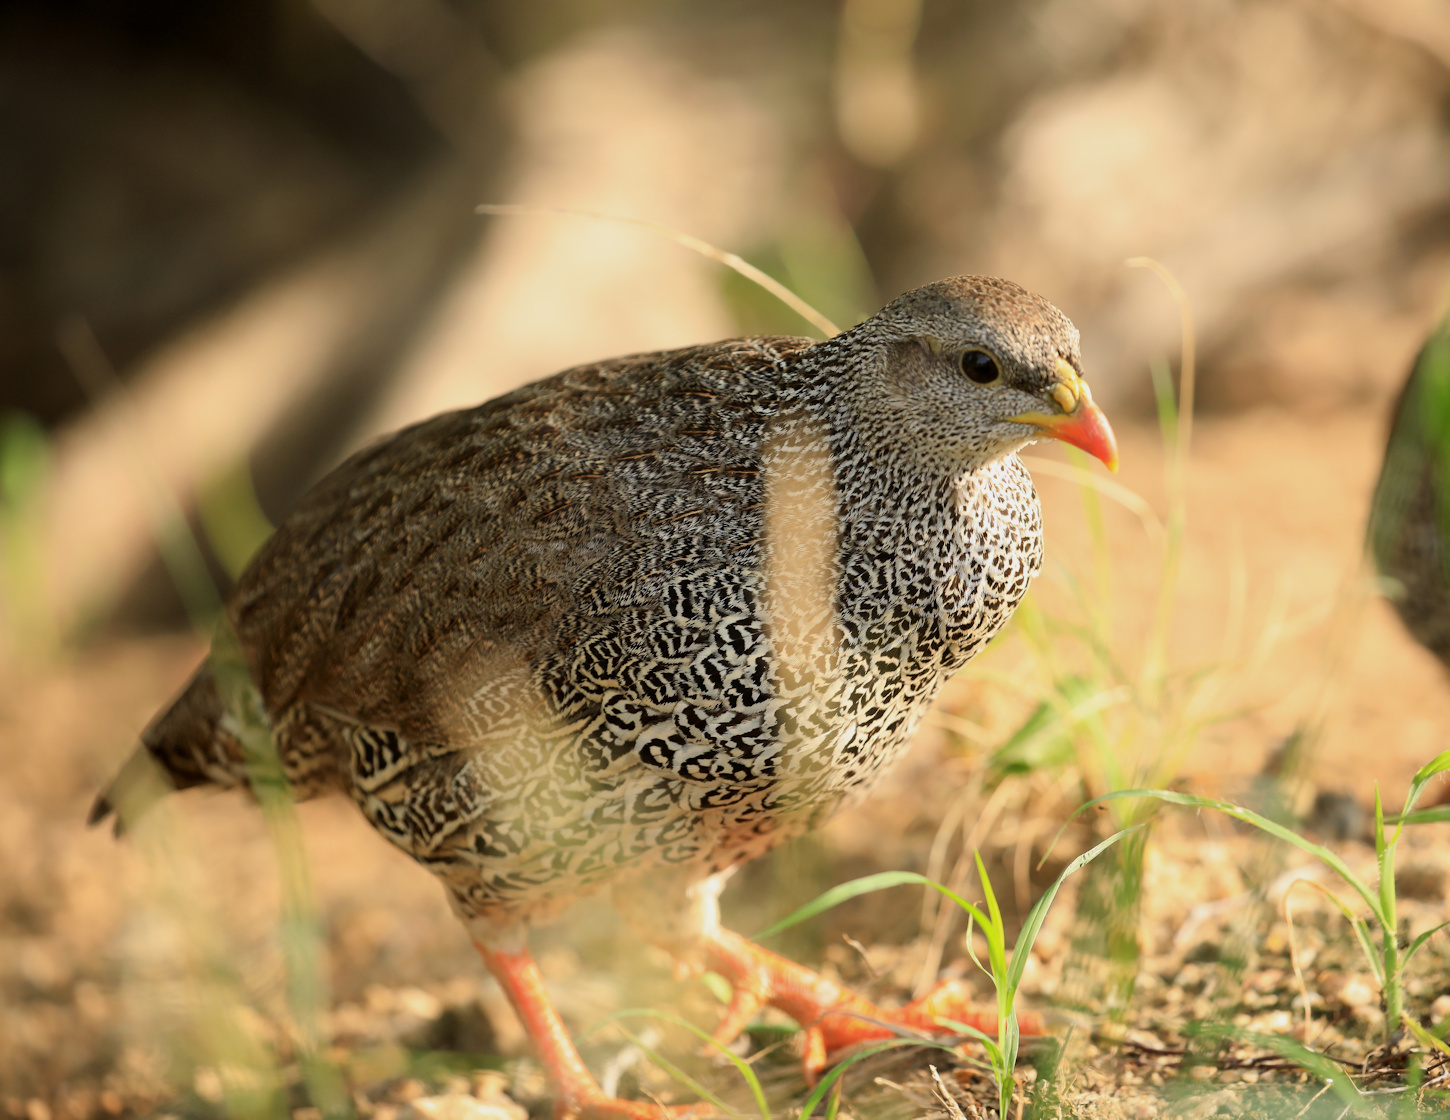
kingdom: Animalia
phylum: Chordata
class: Aves
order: Galliformes
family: Phasianidae
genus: Pternistis
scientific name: Pternistis natalensis
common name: Natal spurfowl
